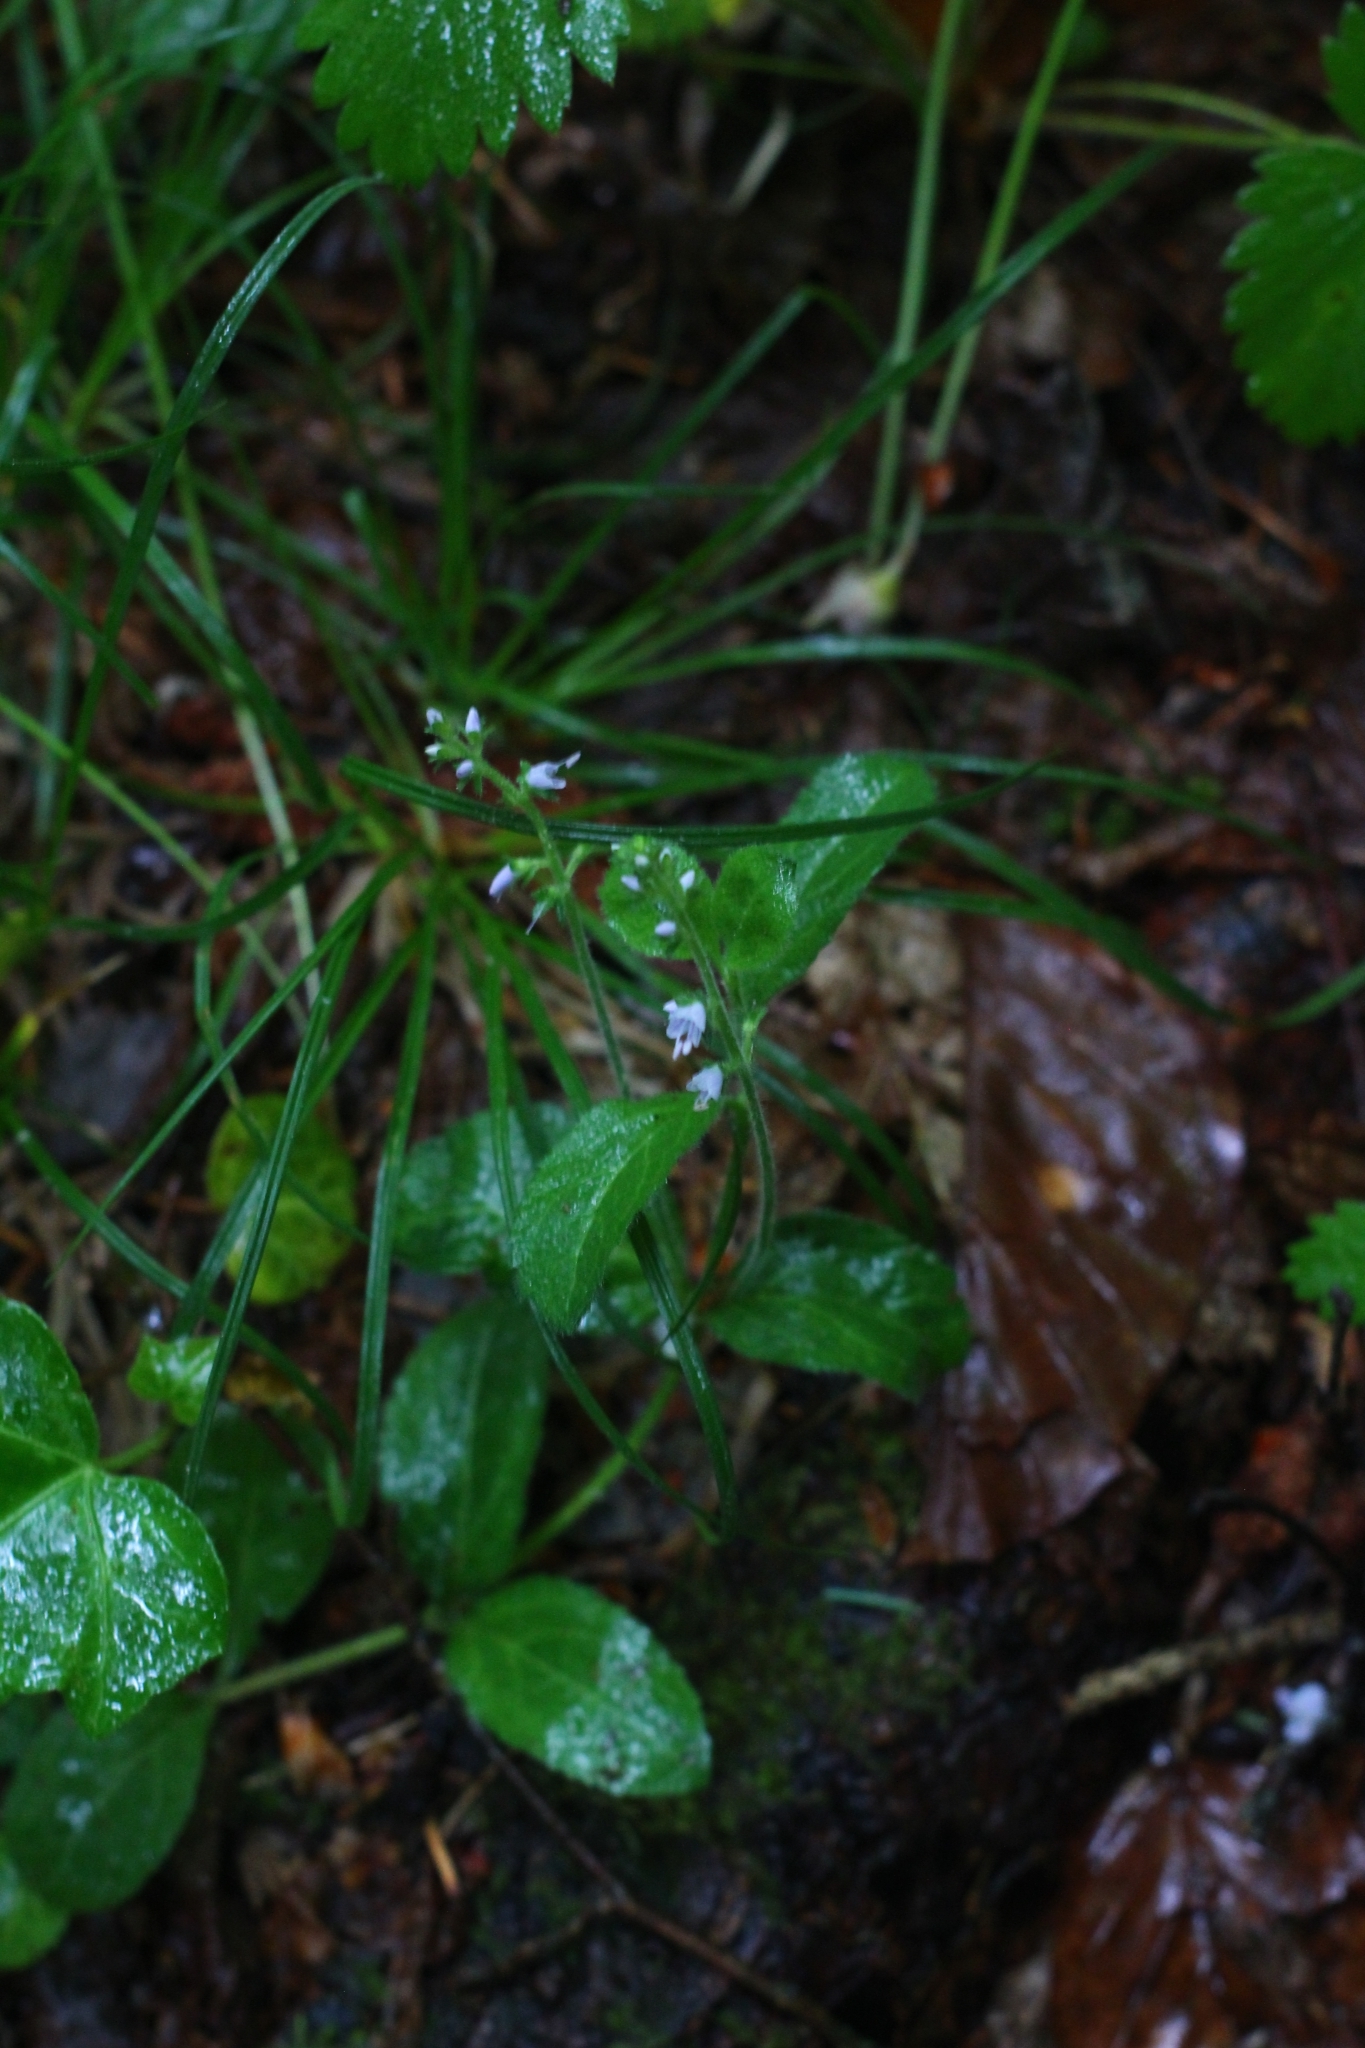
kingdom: Plantae
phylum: Tracheophyta
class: Magnoliopsida
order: Lamiales
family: Plantaginaceae
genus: Veronica
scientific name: Veronica officinalis
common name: Common speedwell
